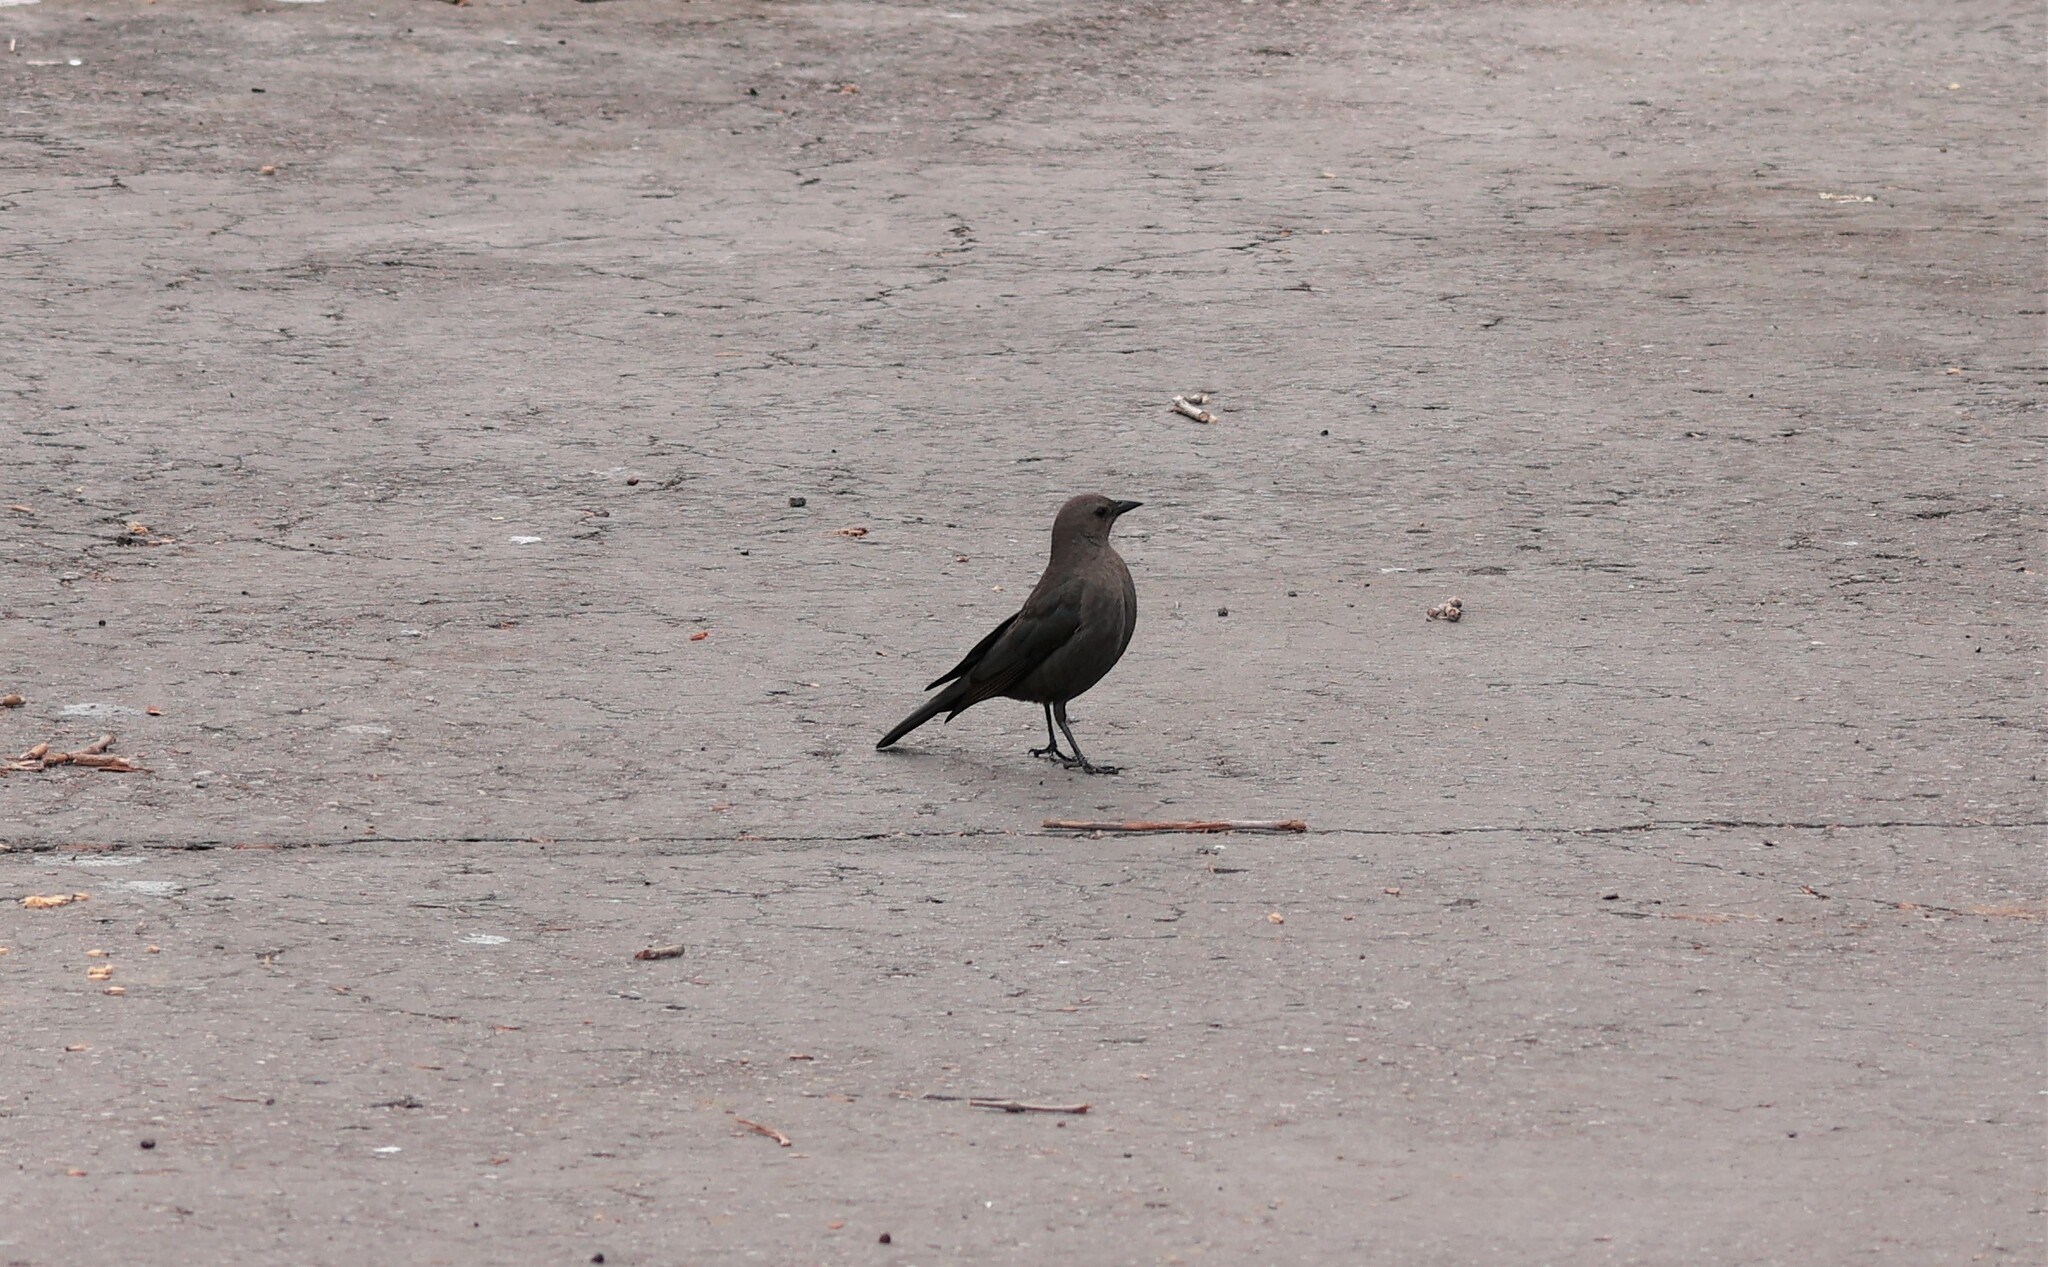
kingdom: Animalia
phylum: Chordata
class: Aves
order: Passeriformes
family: Icteridae
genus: Euphagus
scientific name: Euphagus cyanocephalus
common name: Brewer's blackbird
